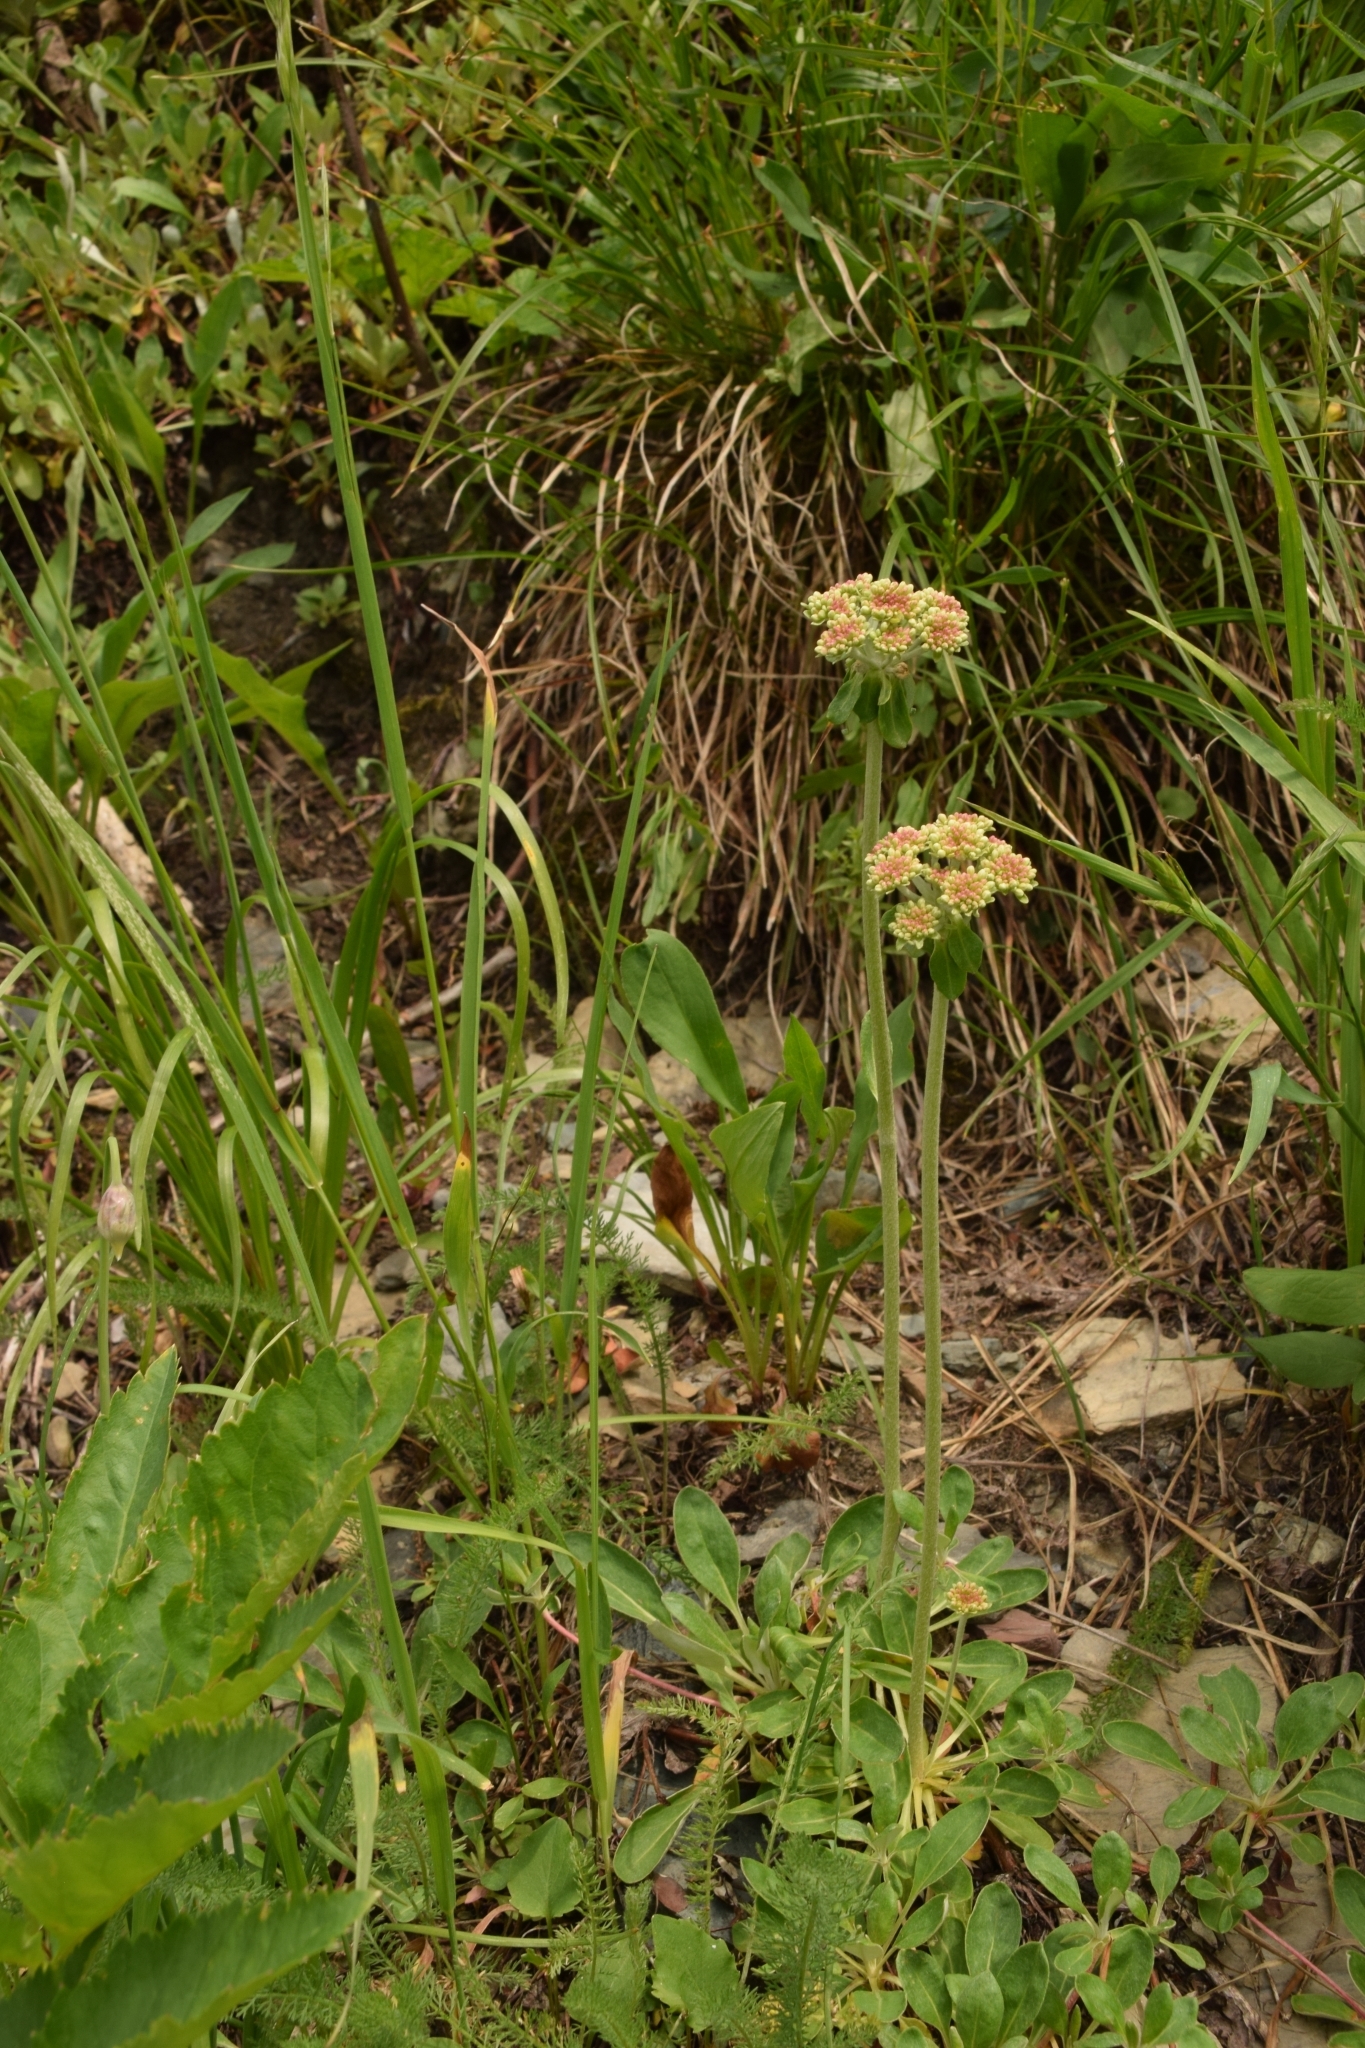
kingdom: Plantae
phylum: Tracheophyta
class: Magnoliopsida
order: Caryophyllales
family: Polygonaceae
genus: Eriogonum
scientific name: Eriogonum umbellatum
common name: Sulfur-buckwheat
